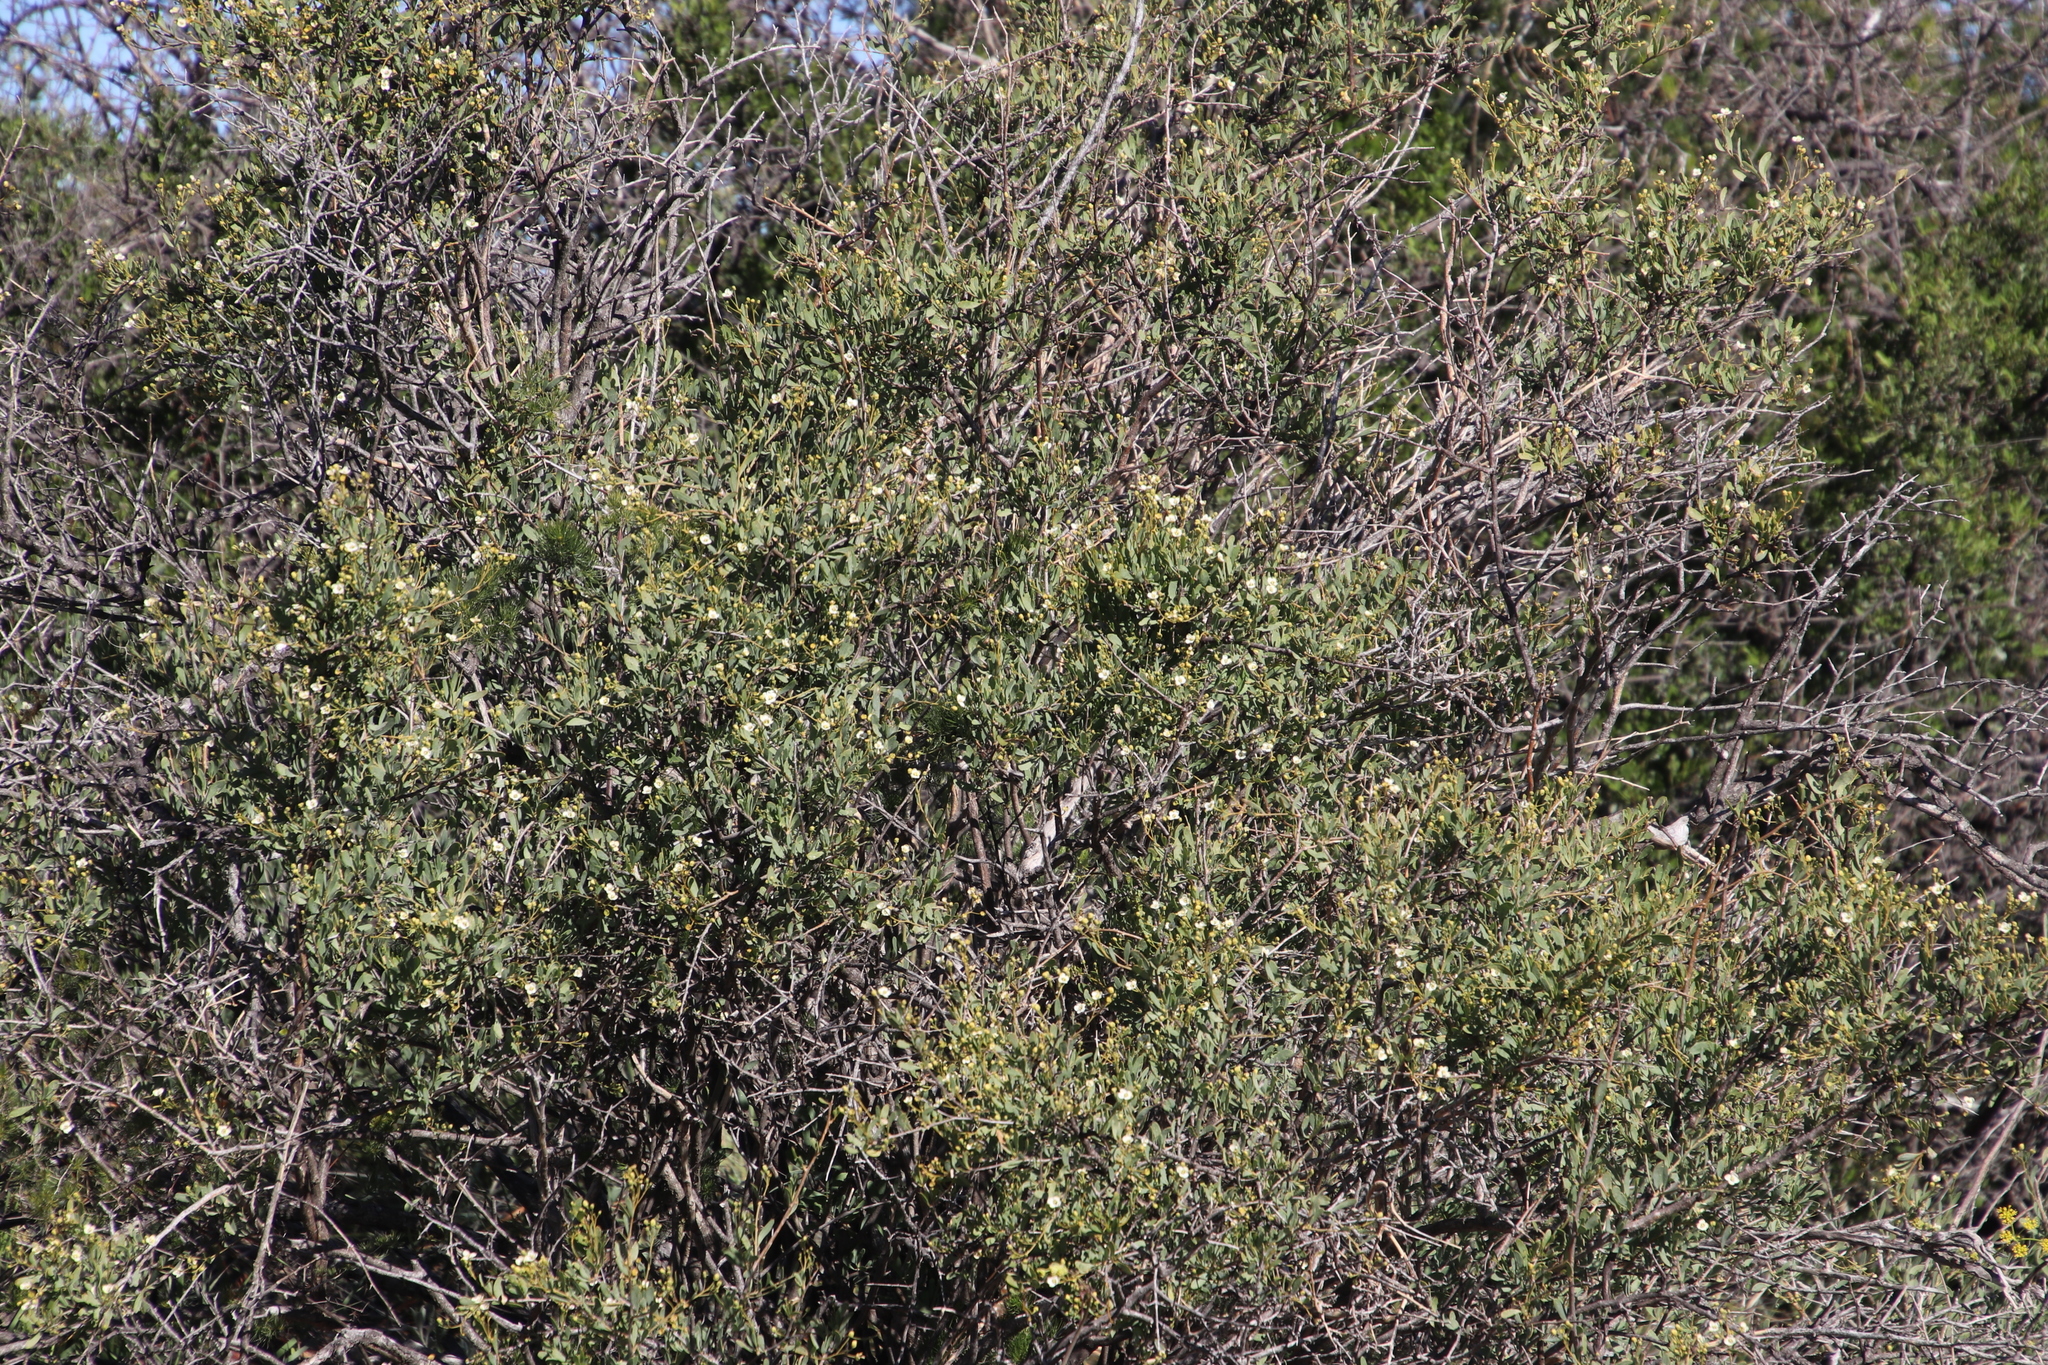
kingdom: Plantae
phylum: Tracheophyta
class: Magnoliopsida
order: Solanales
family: Montiniaceae
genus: Montinia
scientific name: Montinia caryophyllacea
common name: Wild clove-bush
